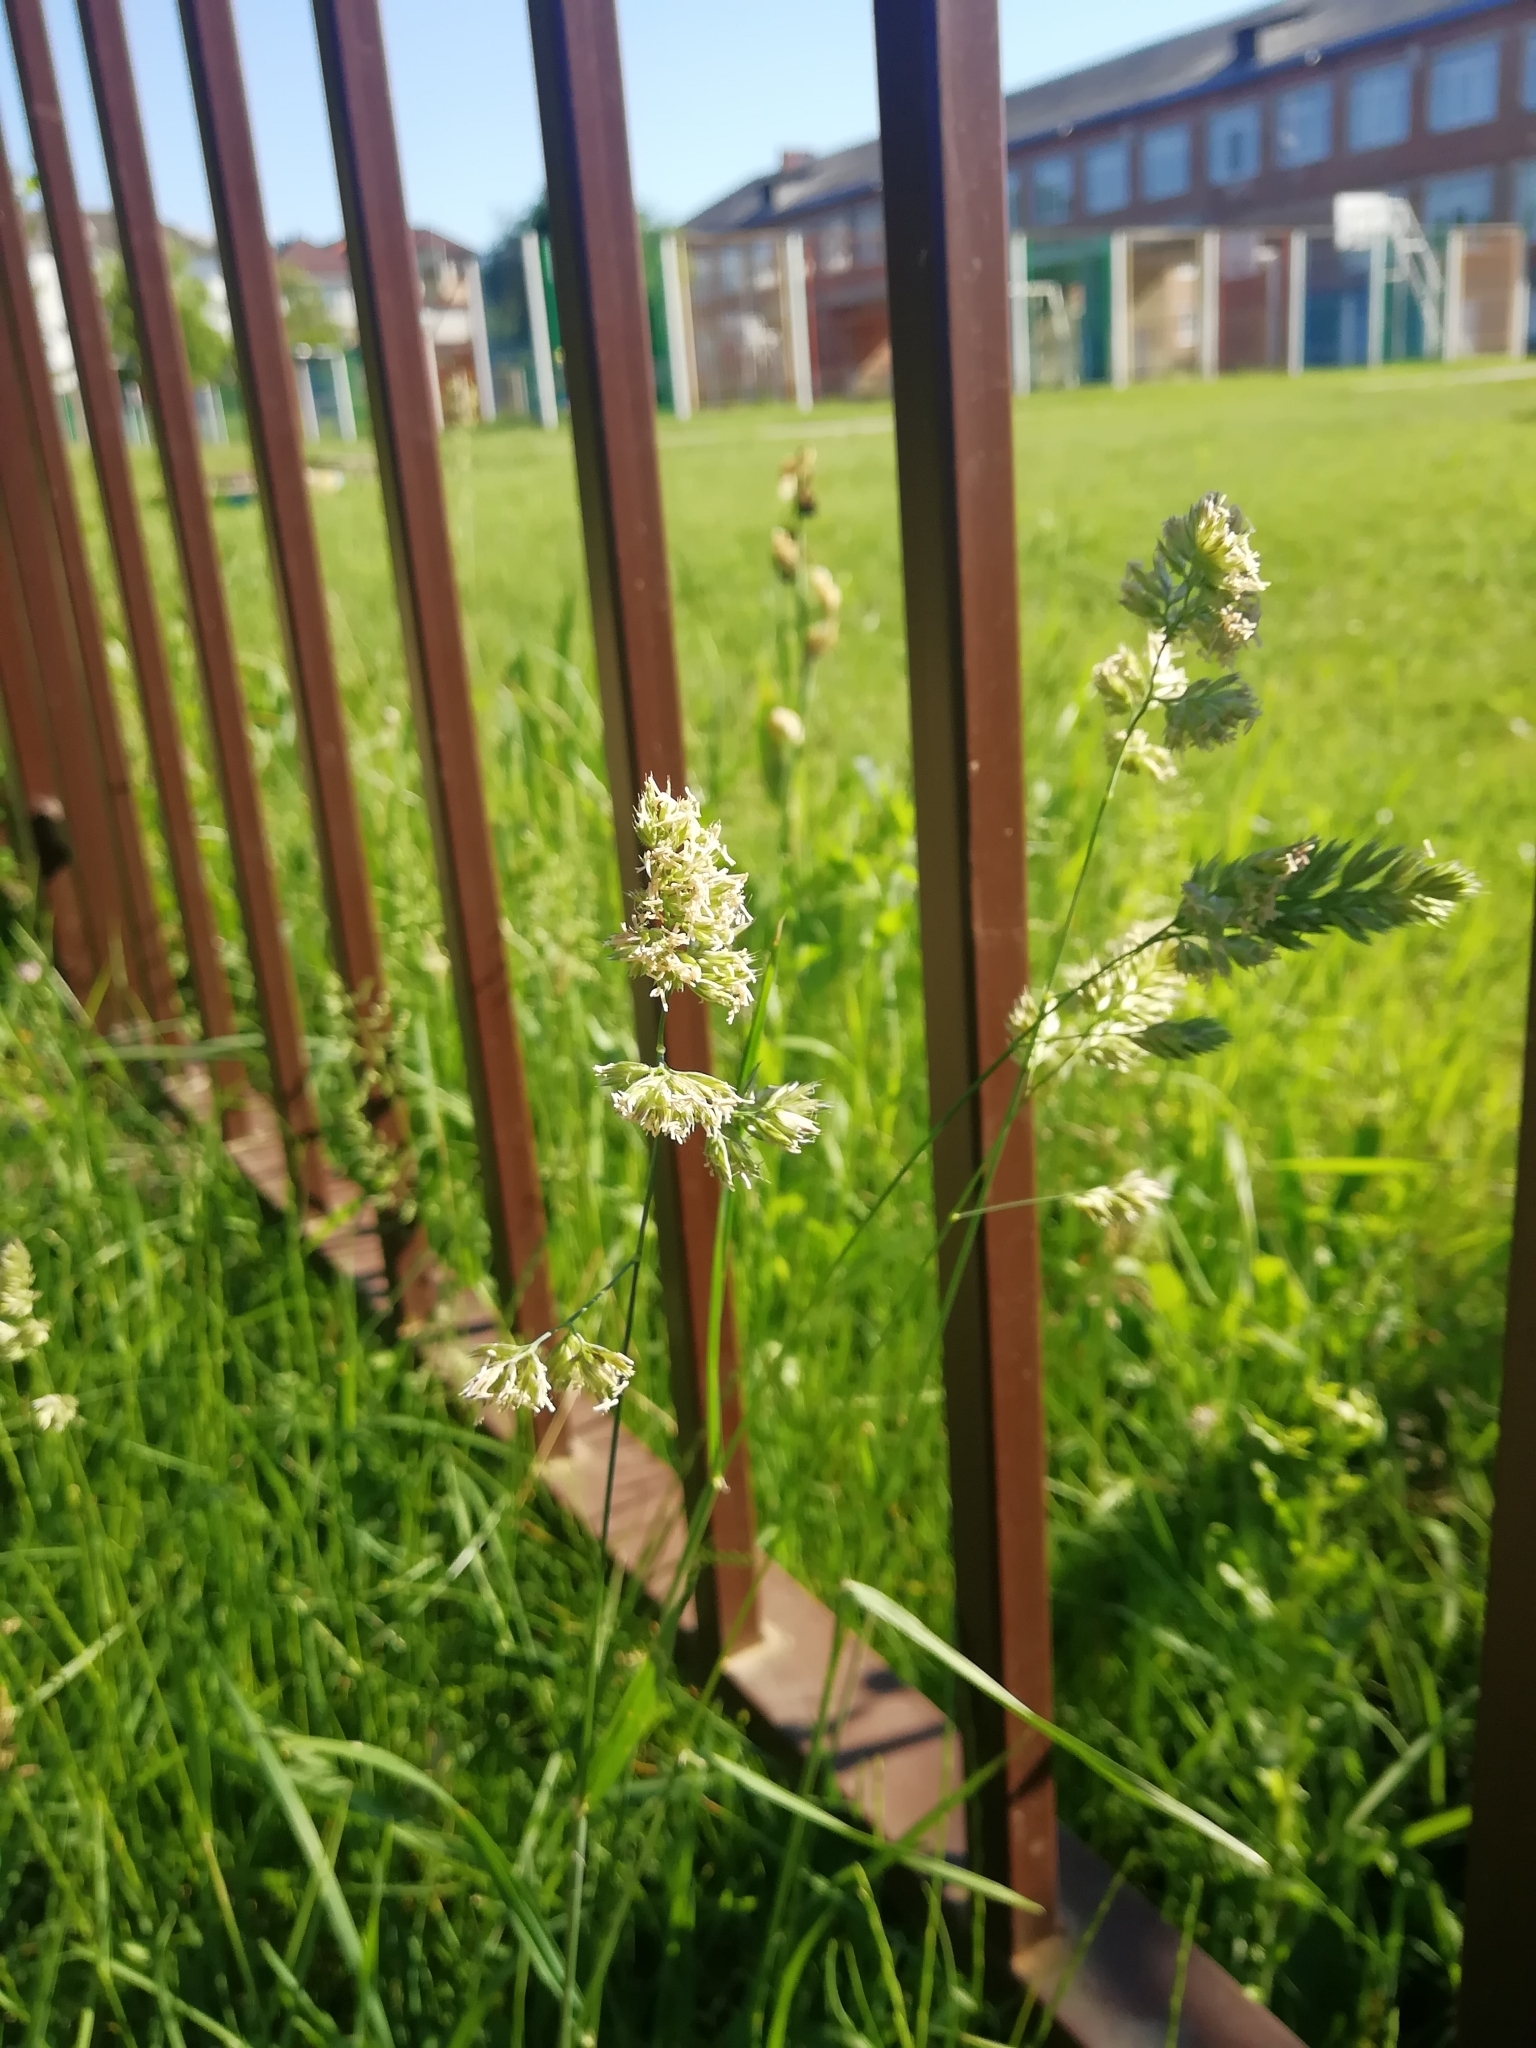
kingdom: Plantae
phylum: Tracheophyta
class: Liliopsida
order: Poales
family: Poaceae
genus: Dactylis
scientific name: Dactylis glomerata
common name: Orchardgrass
